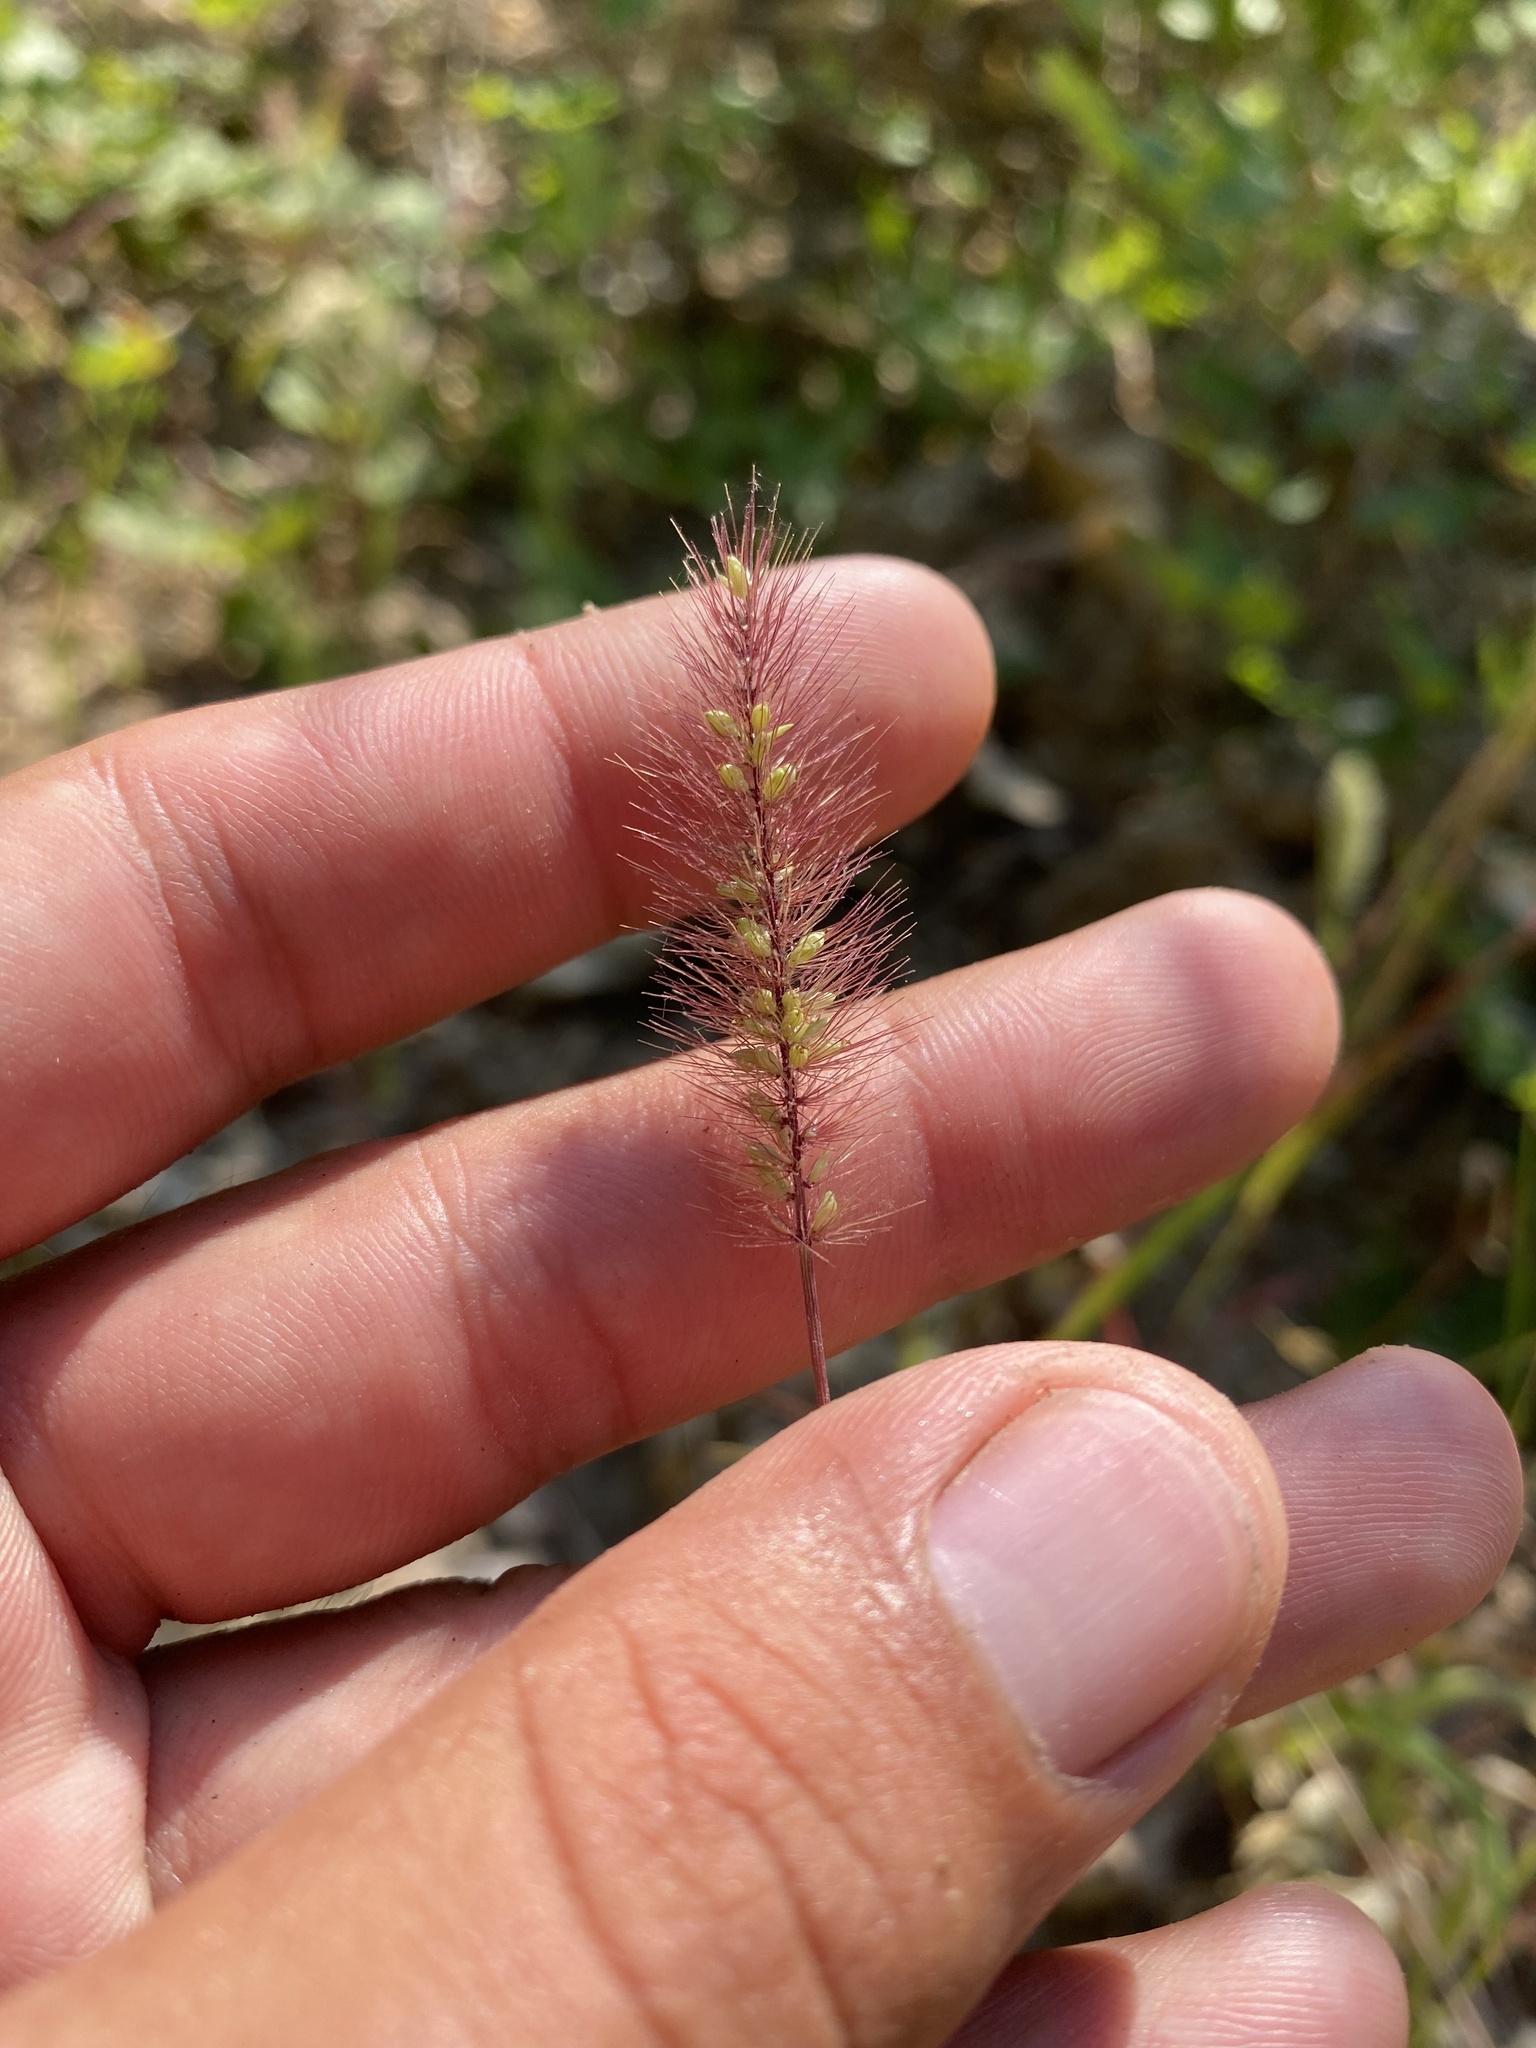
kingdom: Plantae
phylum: Tracheophyta
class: Liliopsida
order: Poales
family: Poaceae
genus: Setaria
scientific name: Setaria viridis
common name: Green bristlegrass
